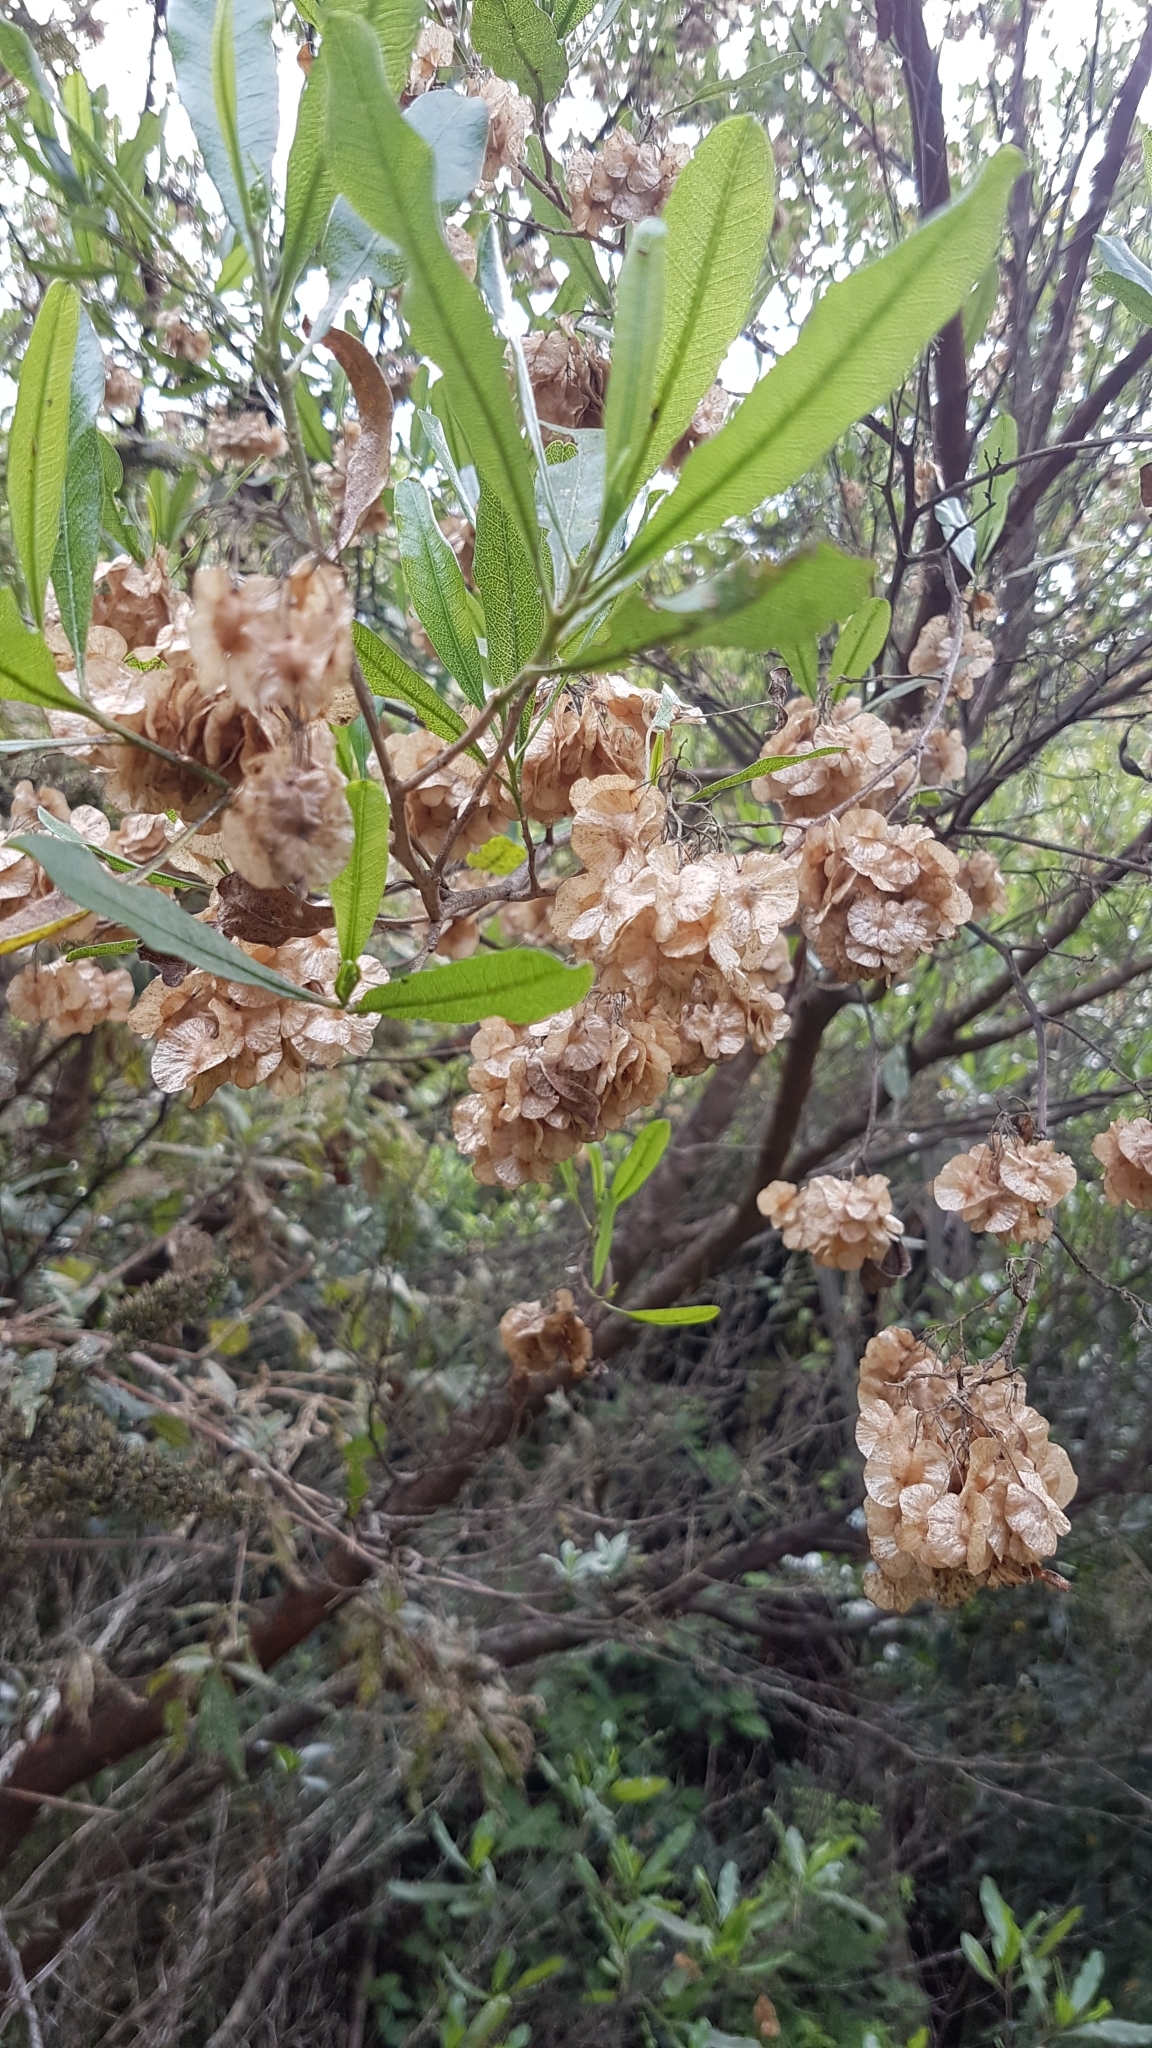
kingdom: Plantae
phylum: Tracheophyta
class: Magnoliopsida
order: Sapindales
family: Sapindaceae
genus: Dodonaea
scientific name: Dodonaea viscosa
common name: Hopbush
